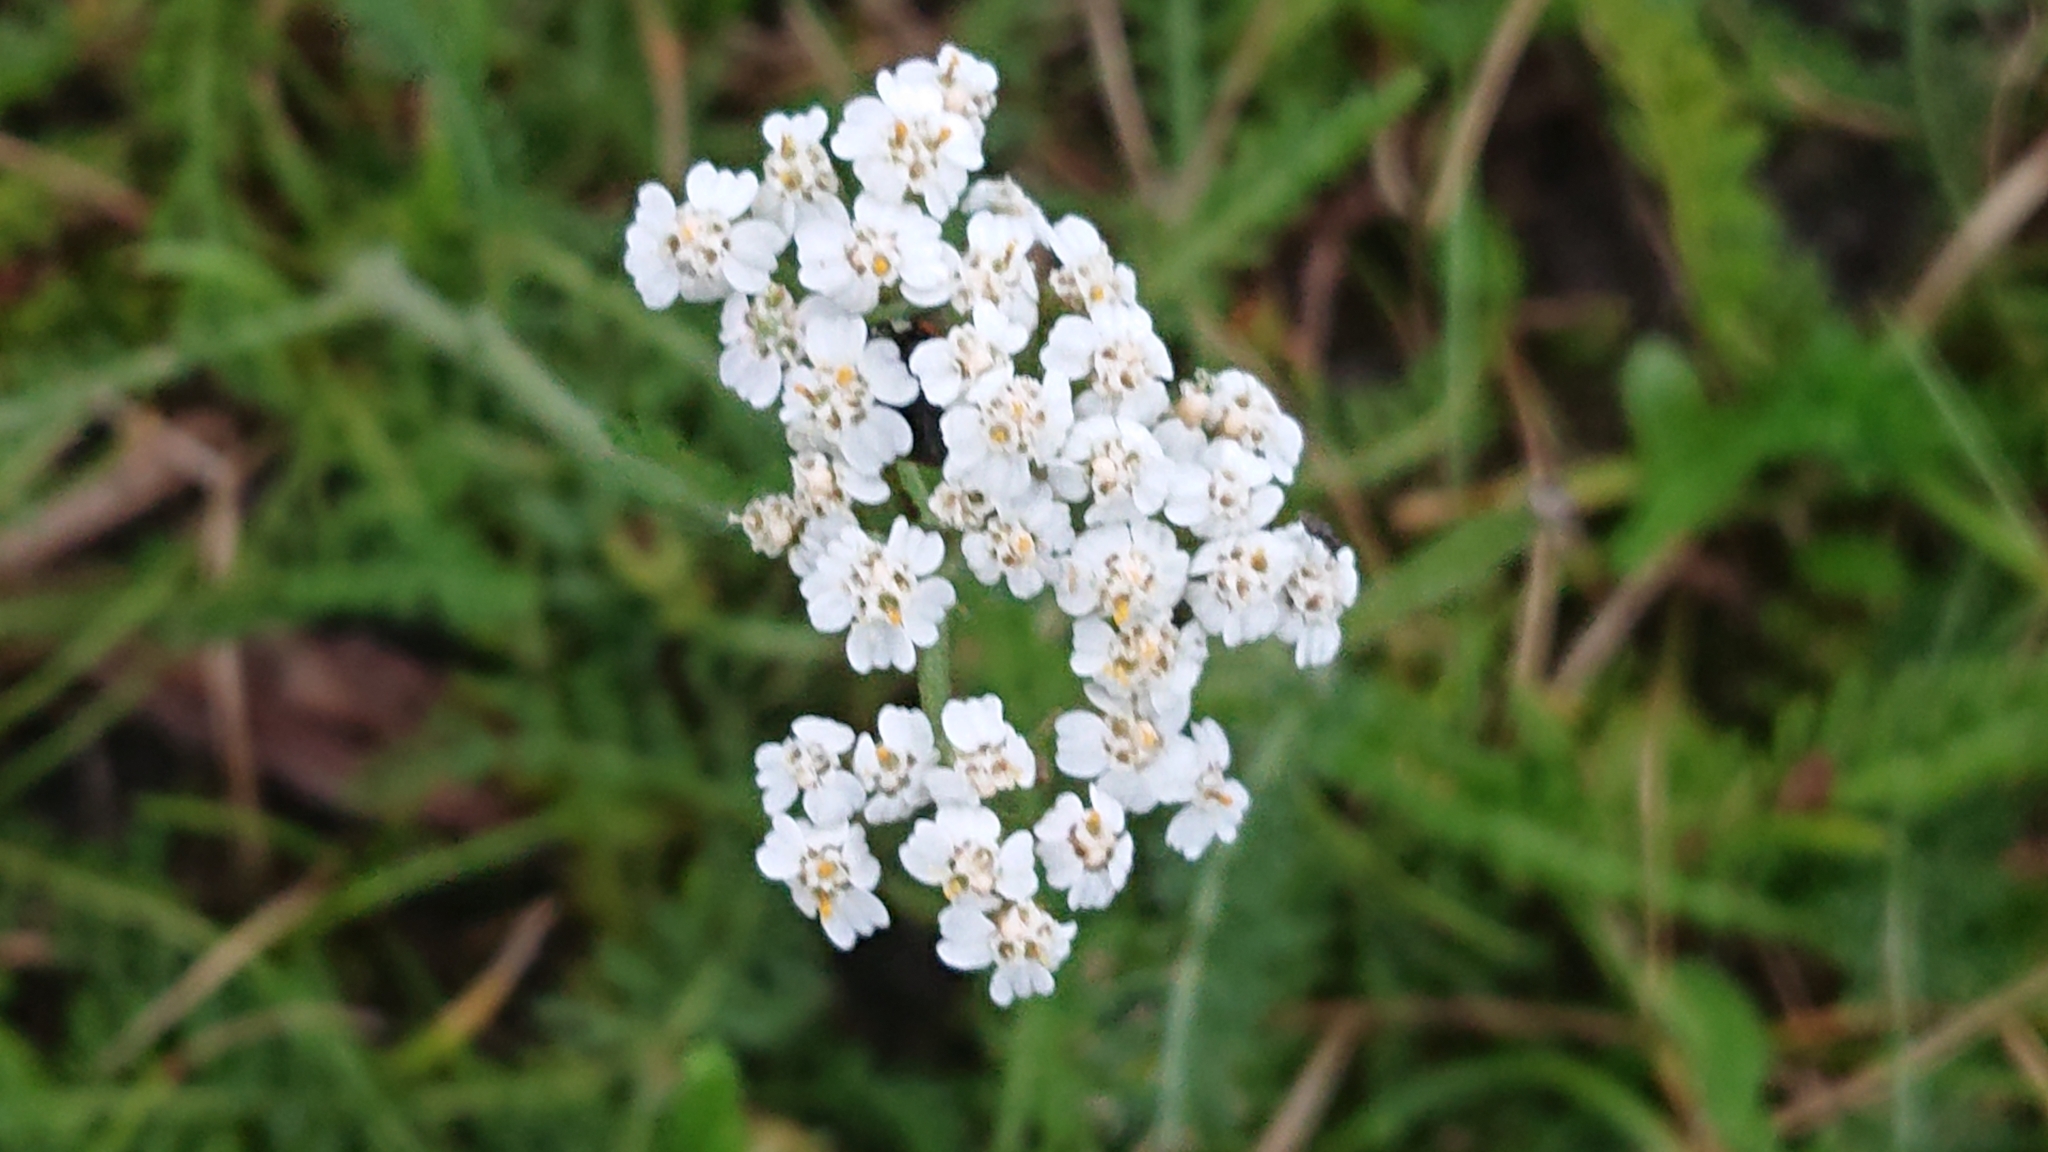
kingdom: Plantae
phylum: Tracheophyta
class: Magnoliopsida
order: Asterales
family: Asteraceae
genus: Achillea
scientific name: Achillea millefolium
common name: Yarrow
